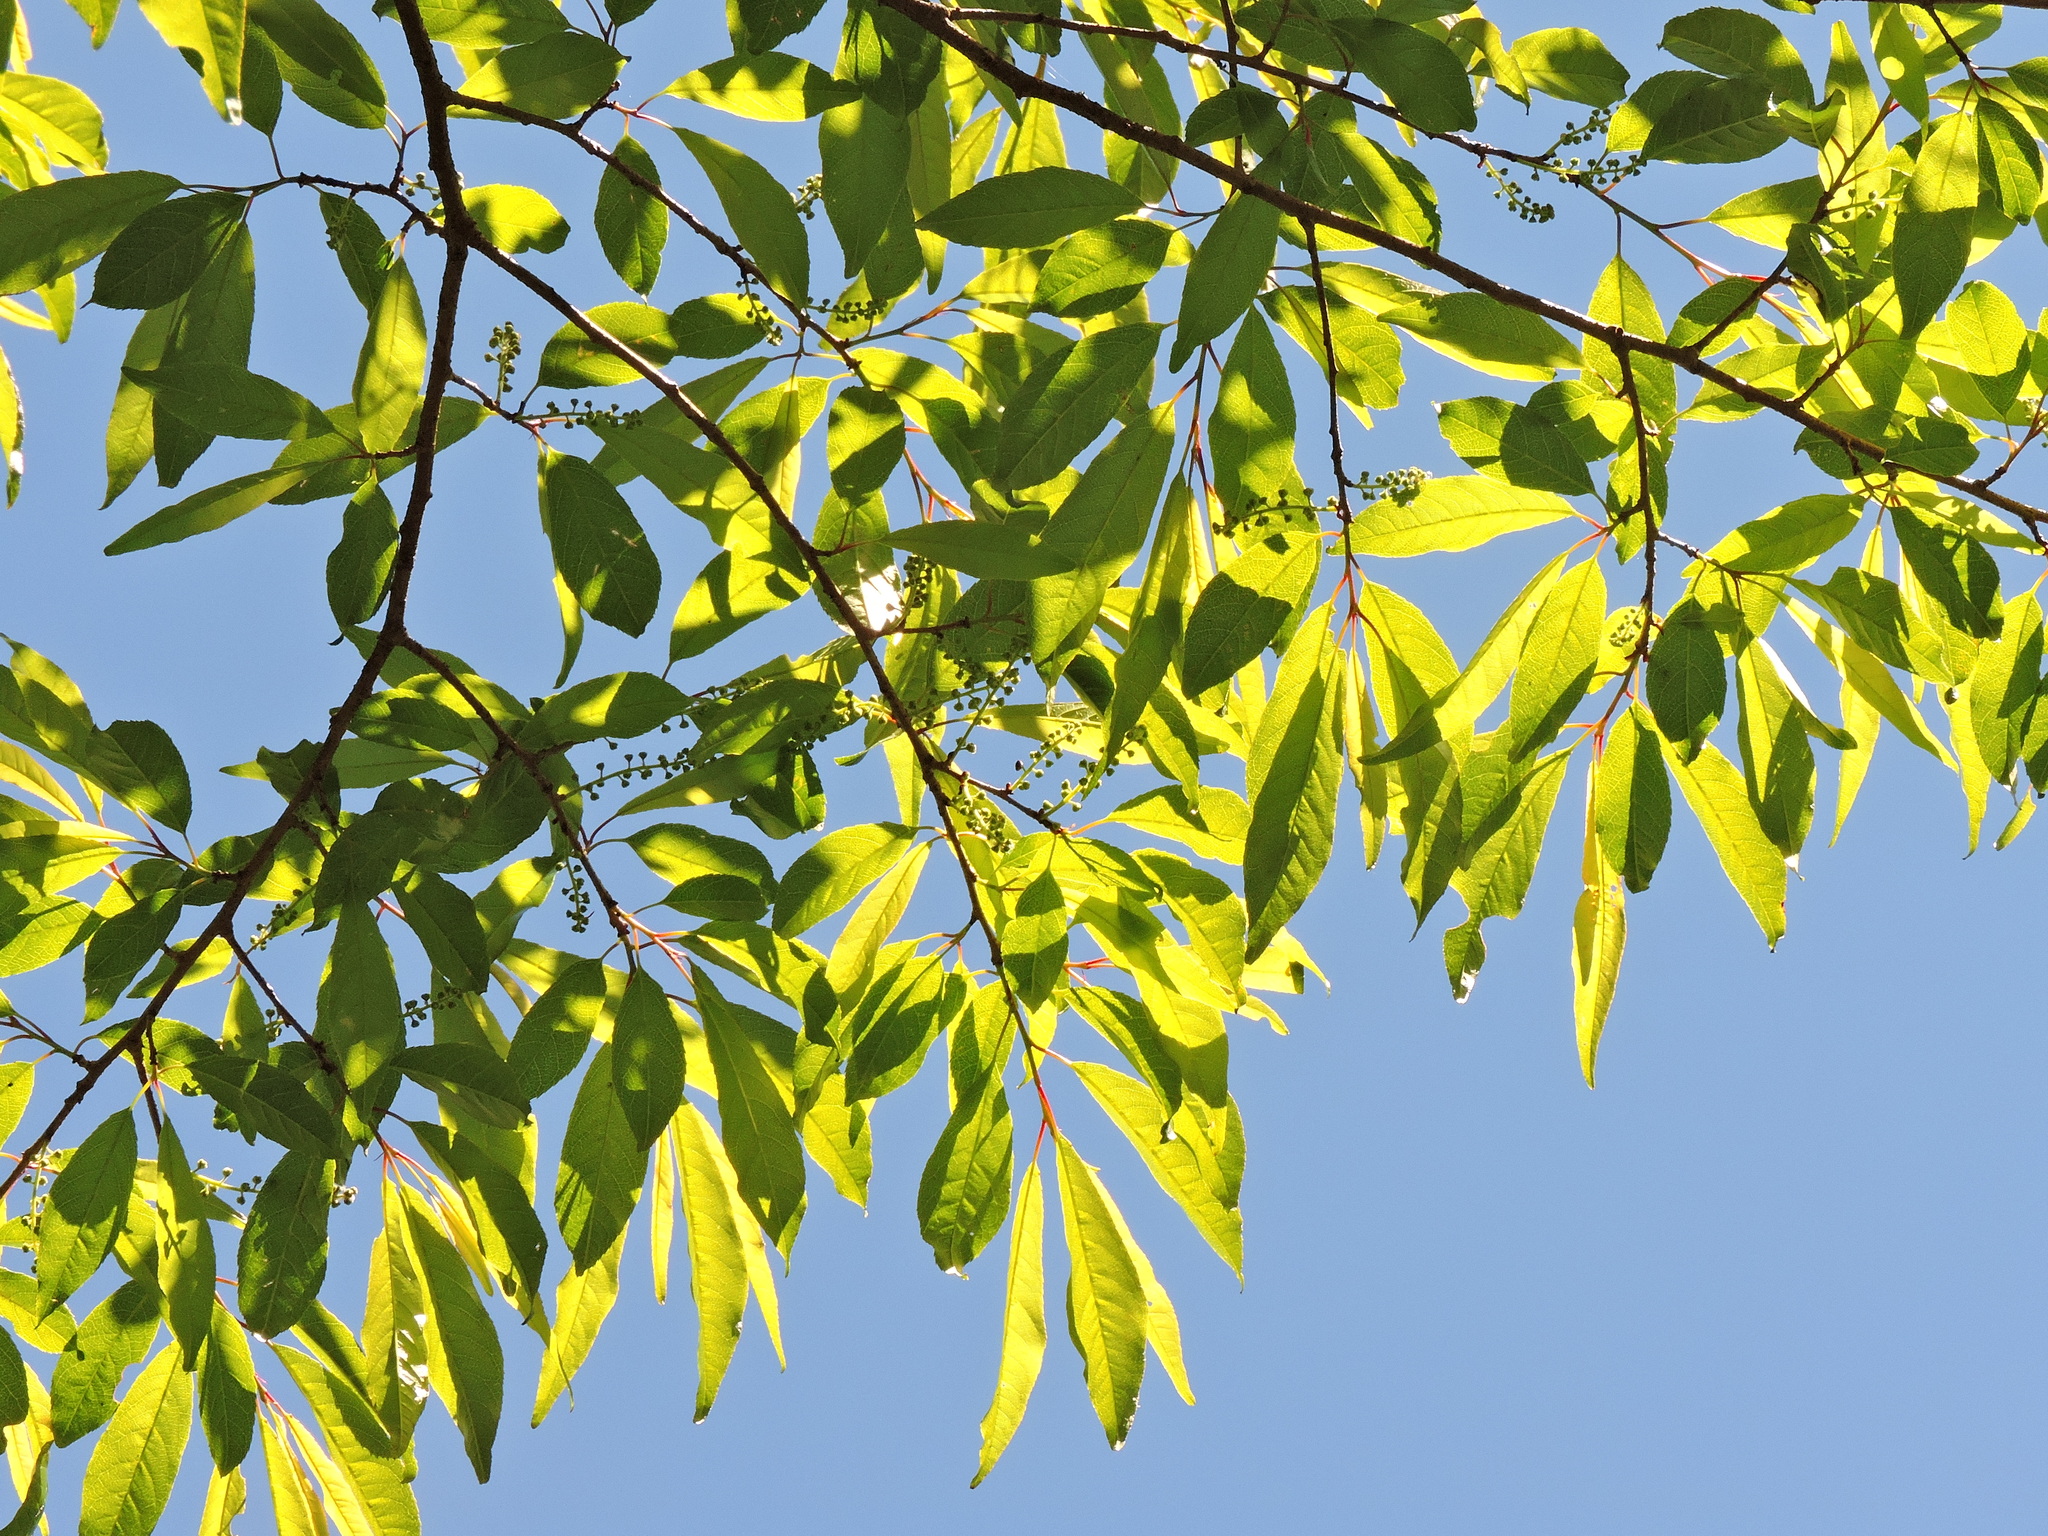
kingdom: Plantae
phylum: Tracheophyta
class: Magnoliopsida
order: Rosales
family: Rosaceae
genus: Prunus
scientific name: Prunus buergeriana
